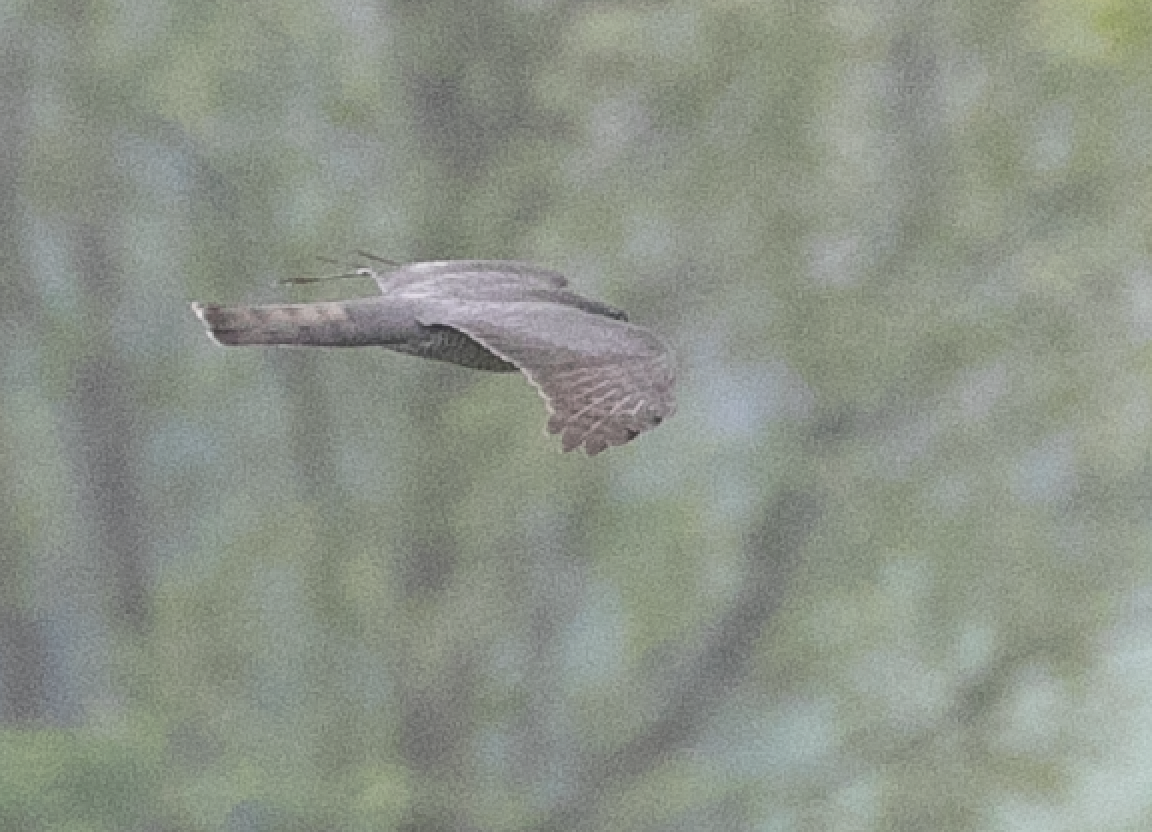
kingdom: Animalia
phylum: Chordata
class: Aves
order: Accipitriformes
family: Accipitridae
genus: Accipiter
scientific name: Accipiter nisus
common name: Eurasian sparrowhawk
